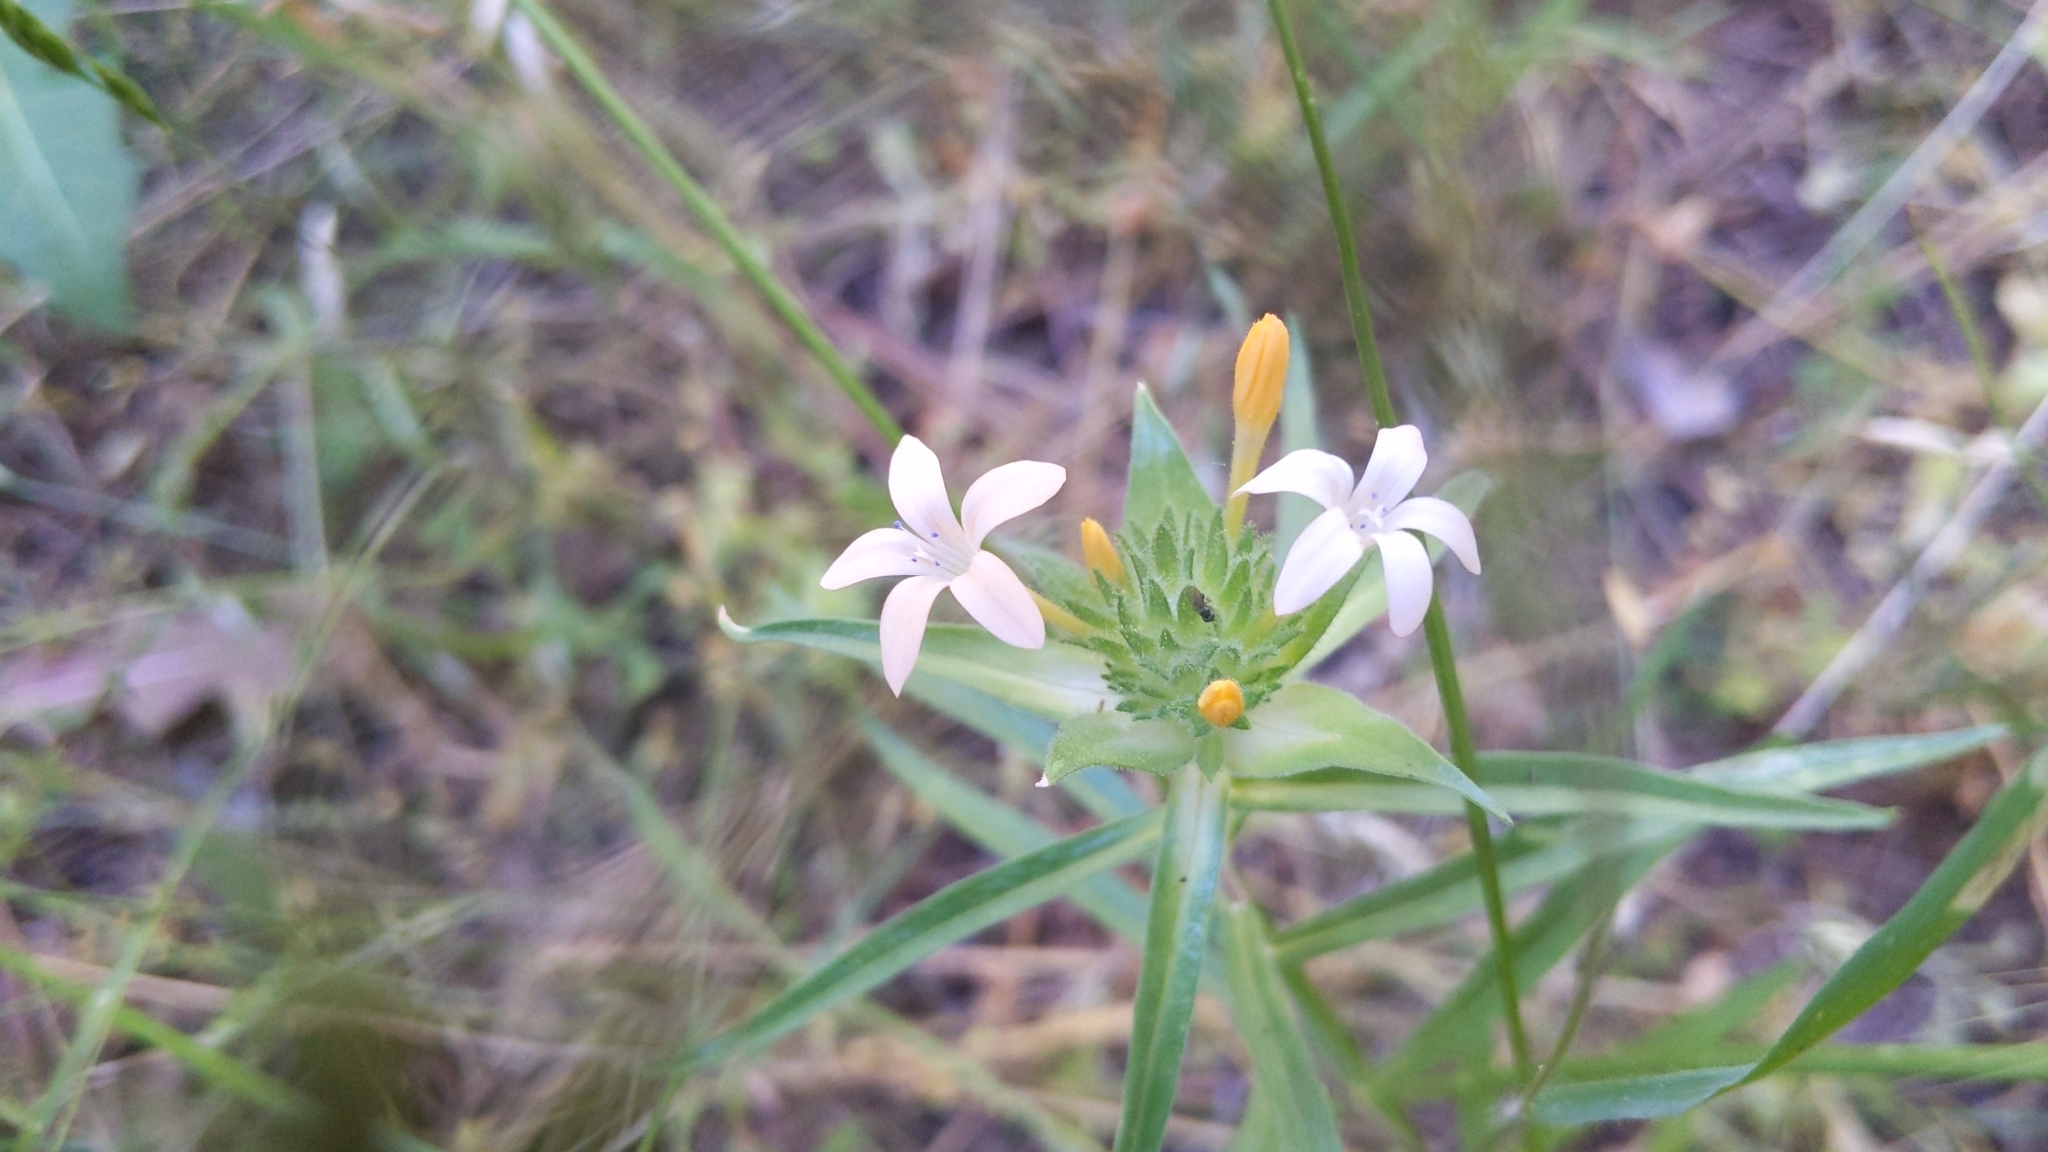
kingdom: Plantae
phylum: Tracheophyta
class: Magnoliopsida
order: Ericales
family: Polemoniaceae
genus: Collomia
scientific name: Collomia grandiflora
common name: California strawflower
